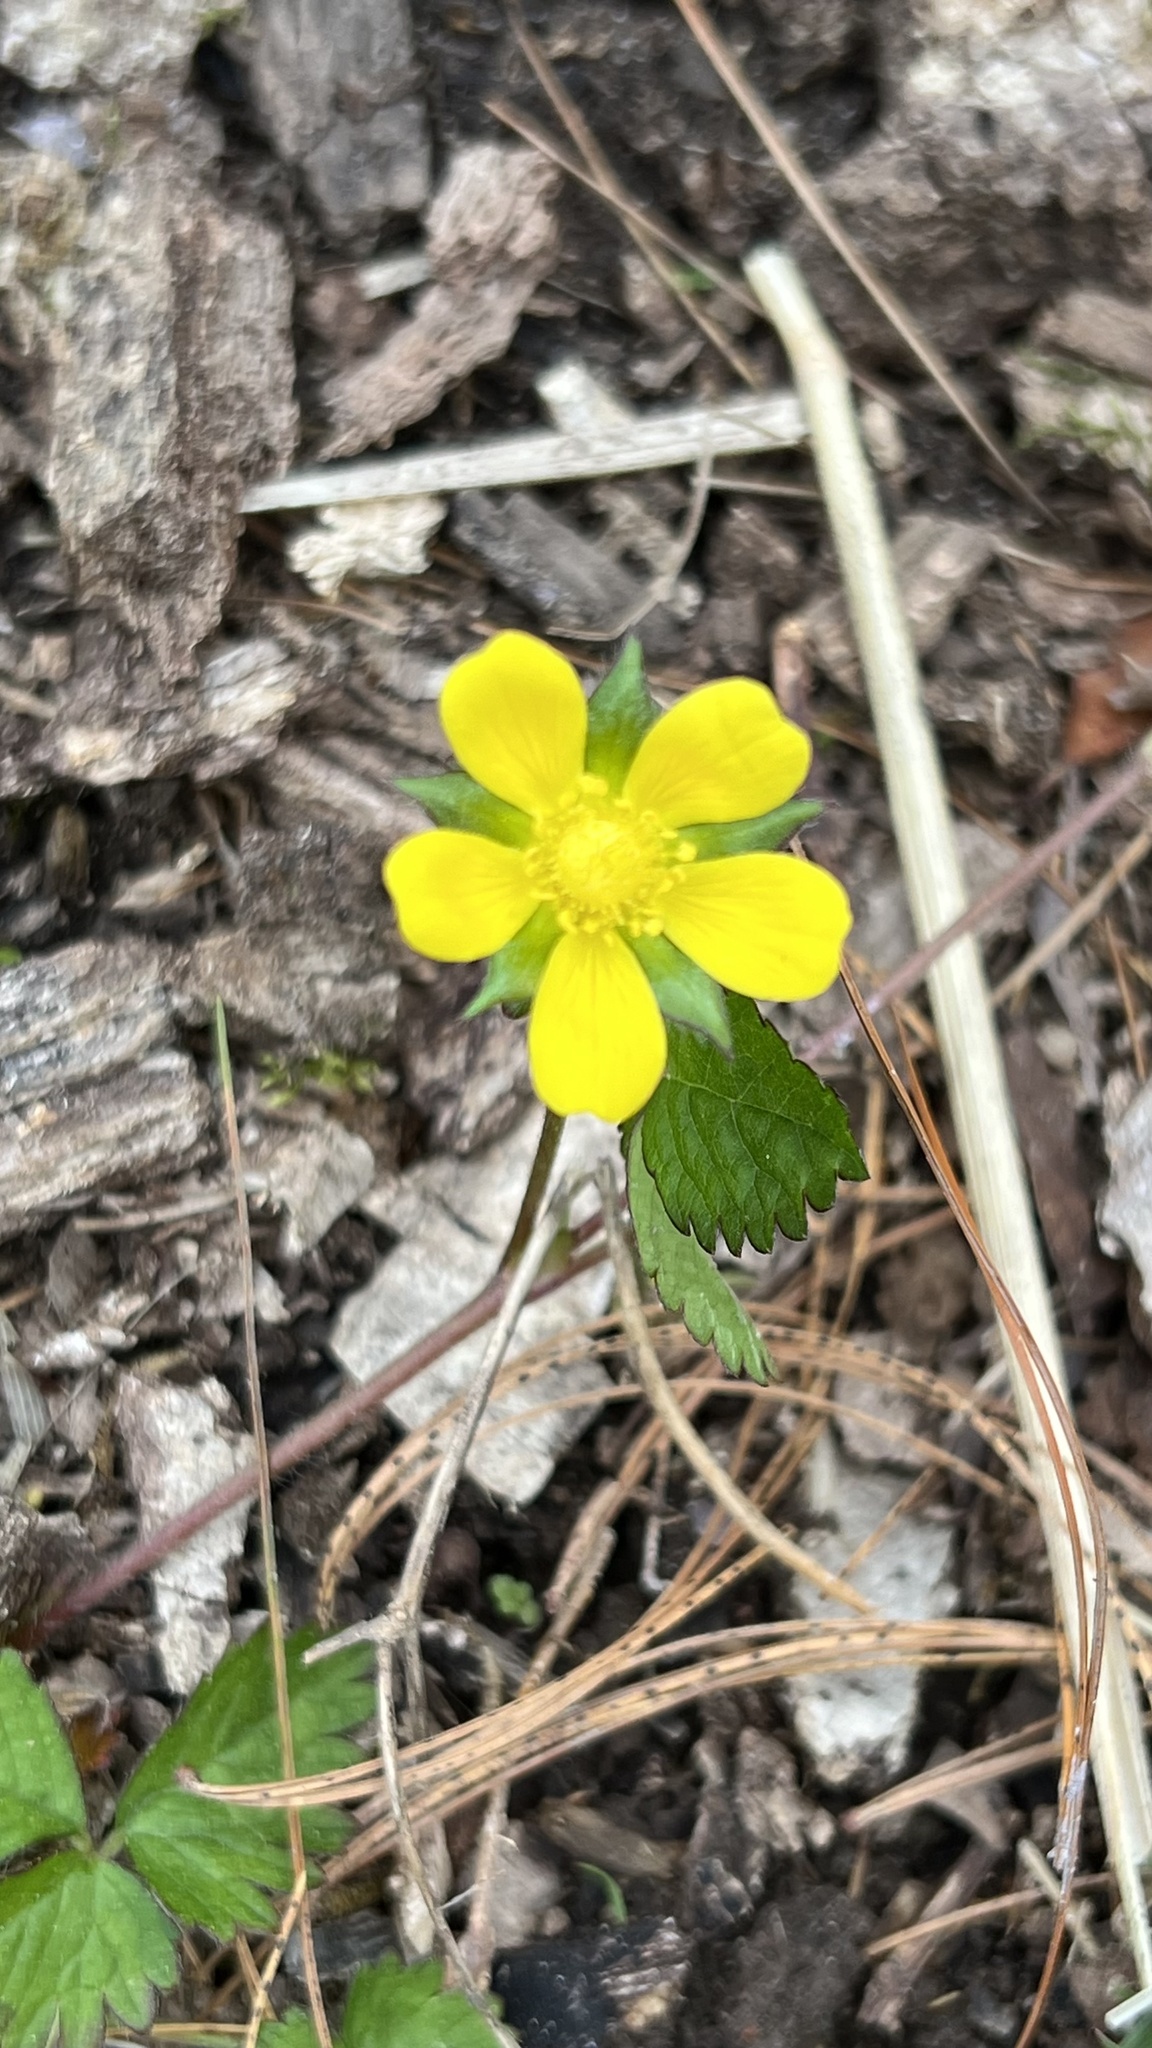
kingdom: Plantae
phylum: Tracheophyta
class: Magnoliopsida
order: Rosales
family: Rosaceae
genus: Potentilla
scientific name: Potentilla indica
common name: Yellow-flowered strawberry
